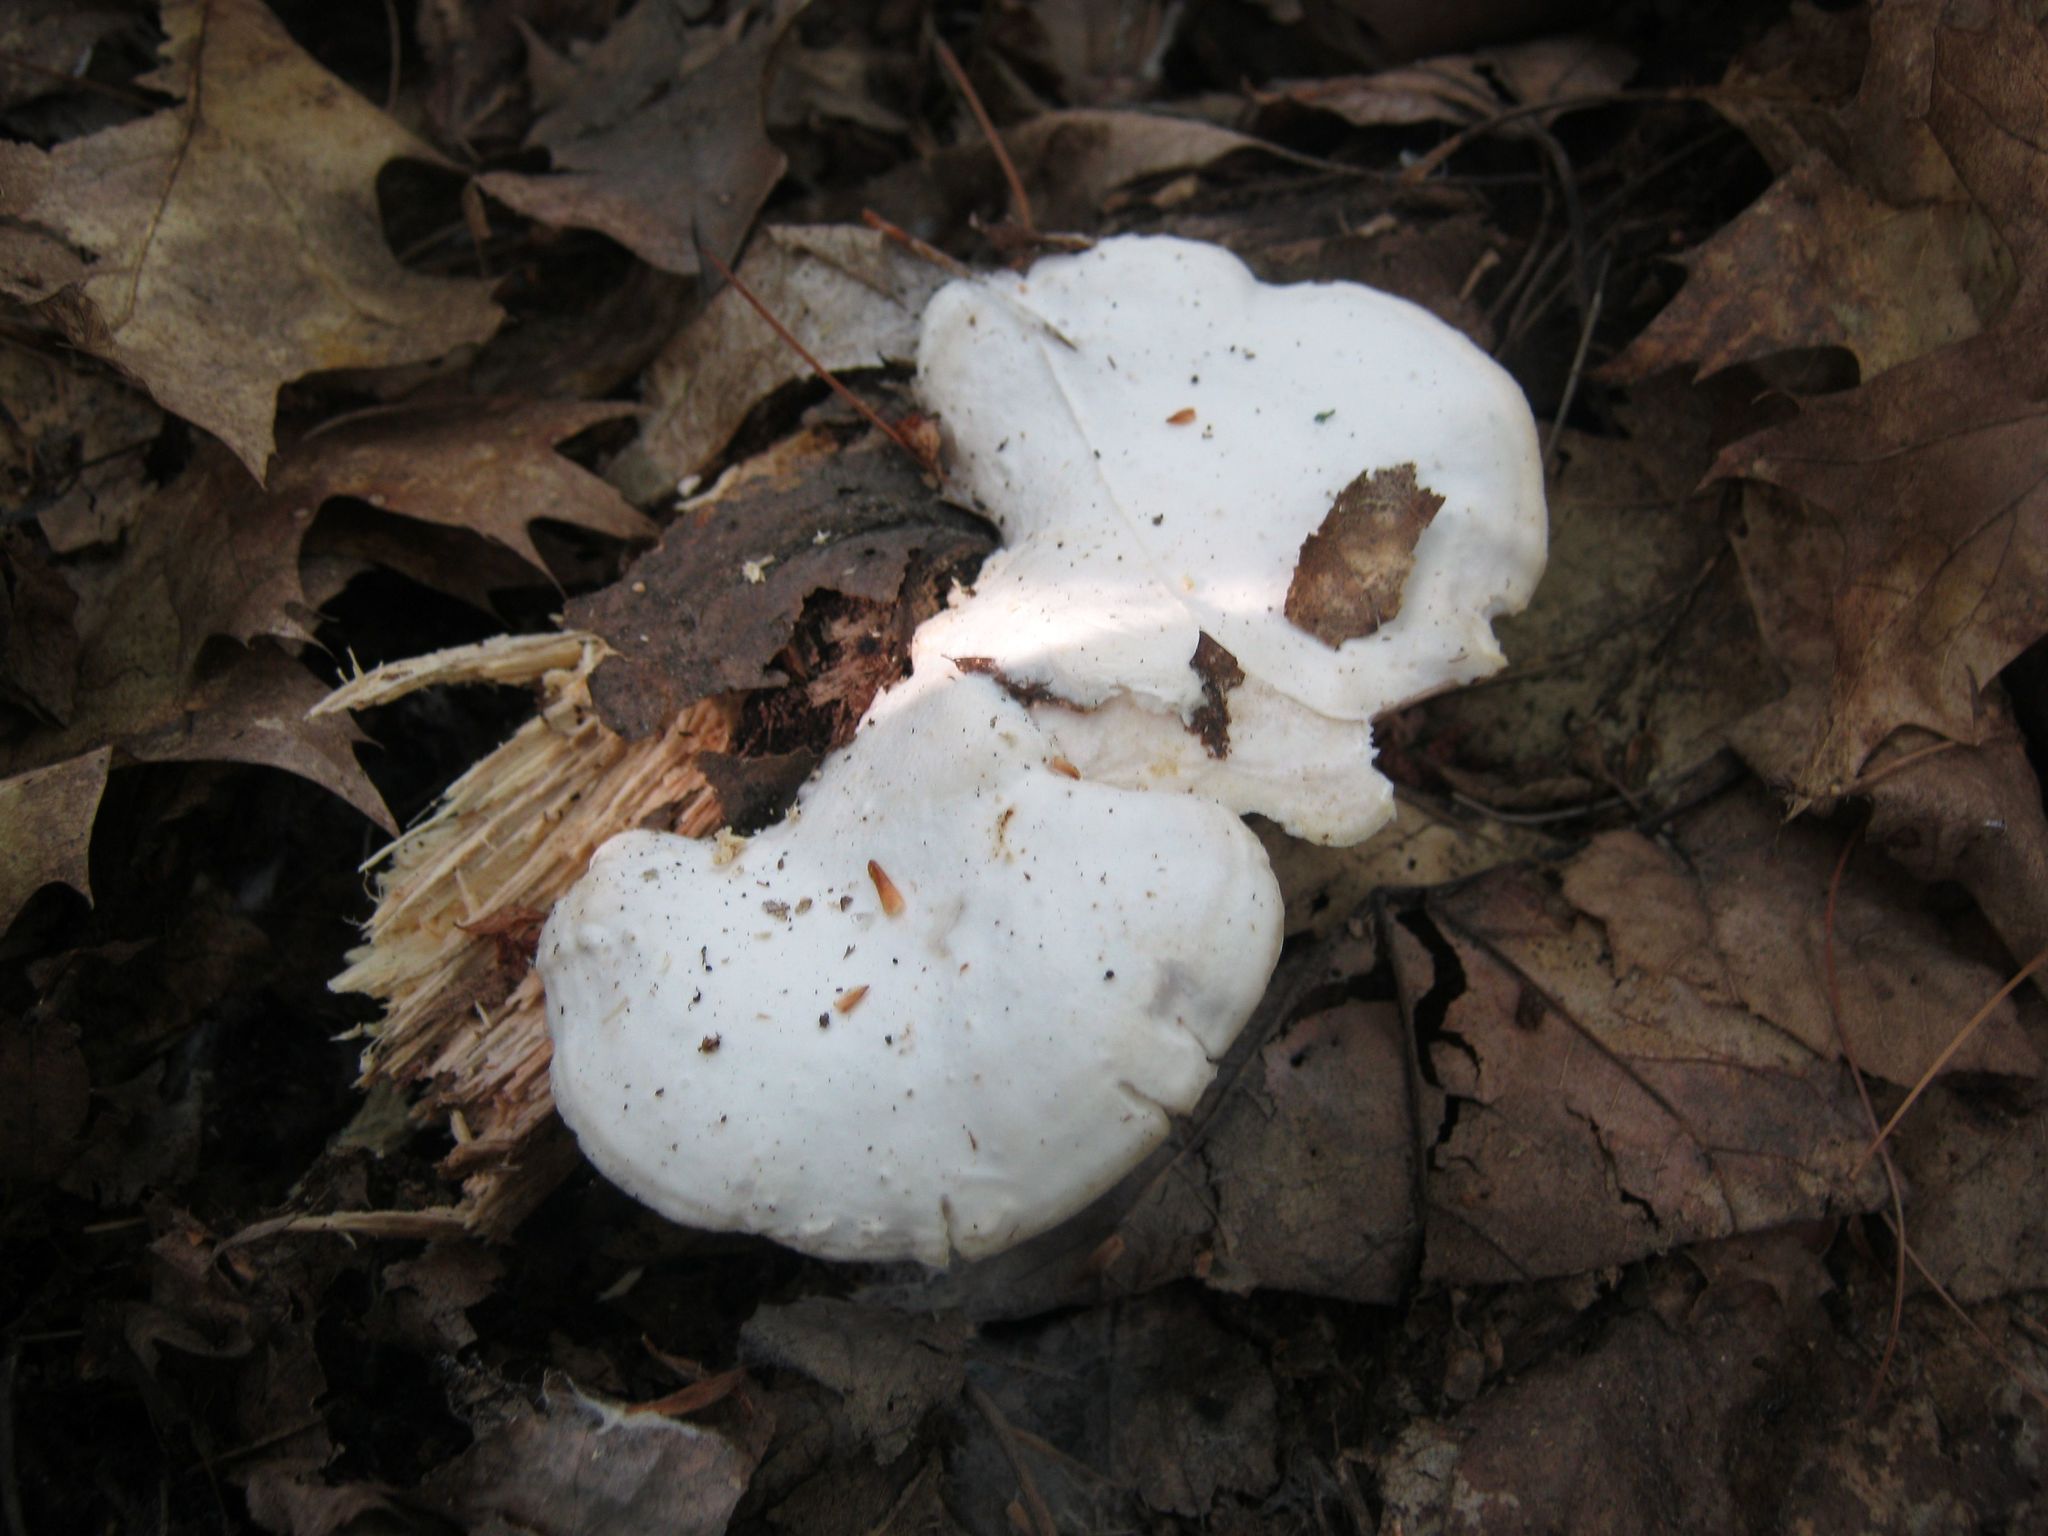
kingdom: Fungi
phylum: Basidiomycota
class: Agaricomycetes
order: Polyporales
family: Incrustoporiaceae
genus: Tyromyces
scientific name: Tyromyces chioneus
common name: White cheese polypore
